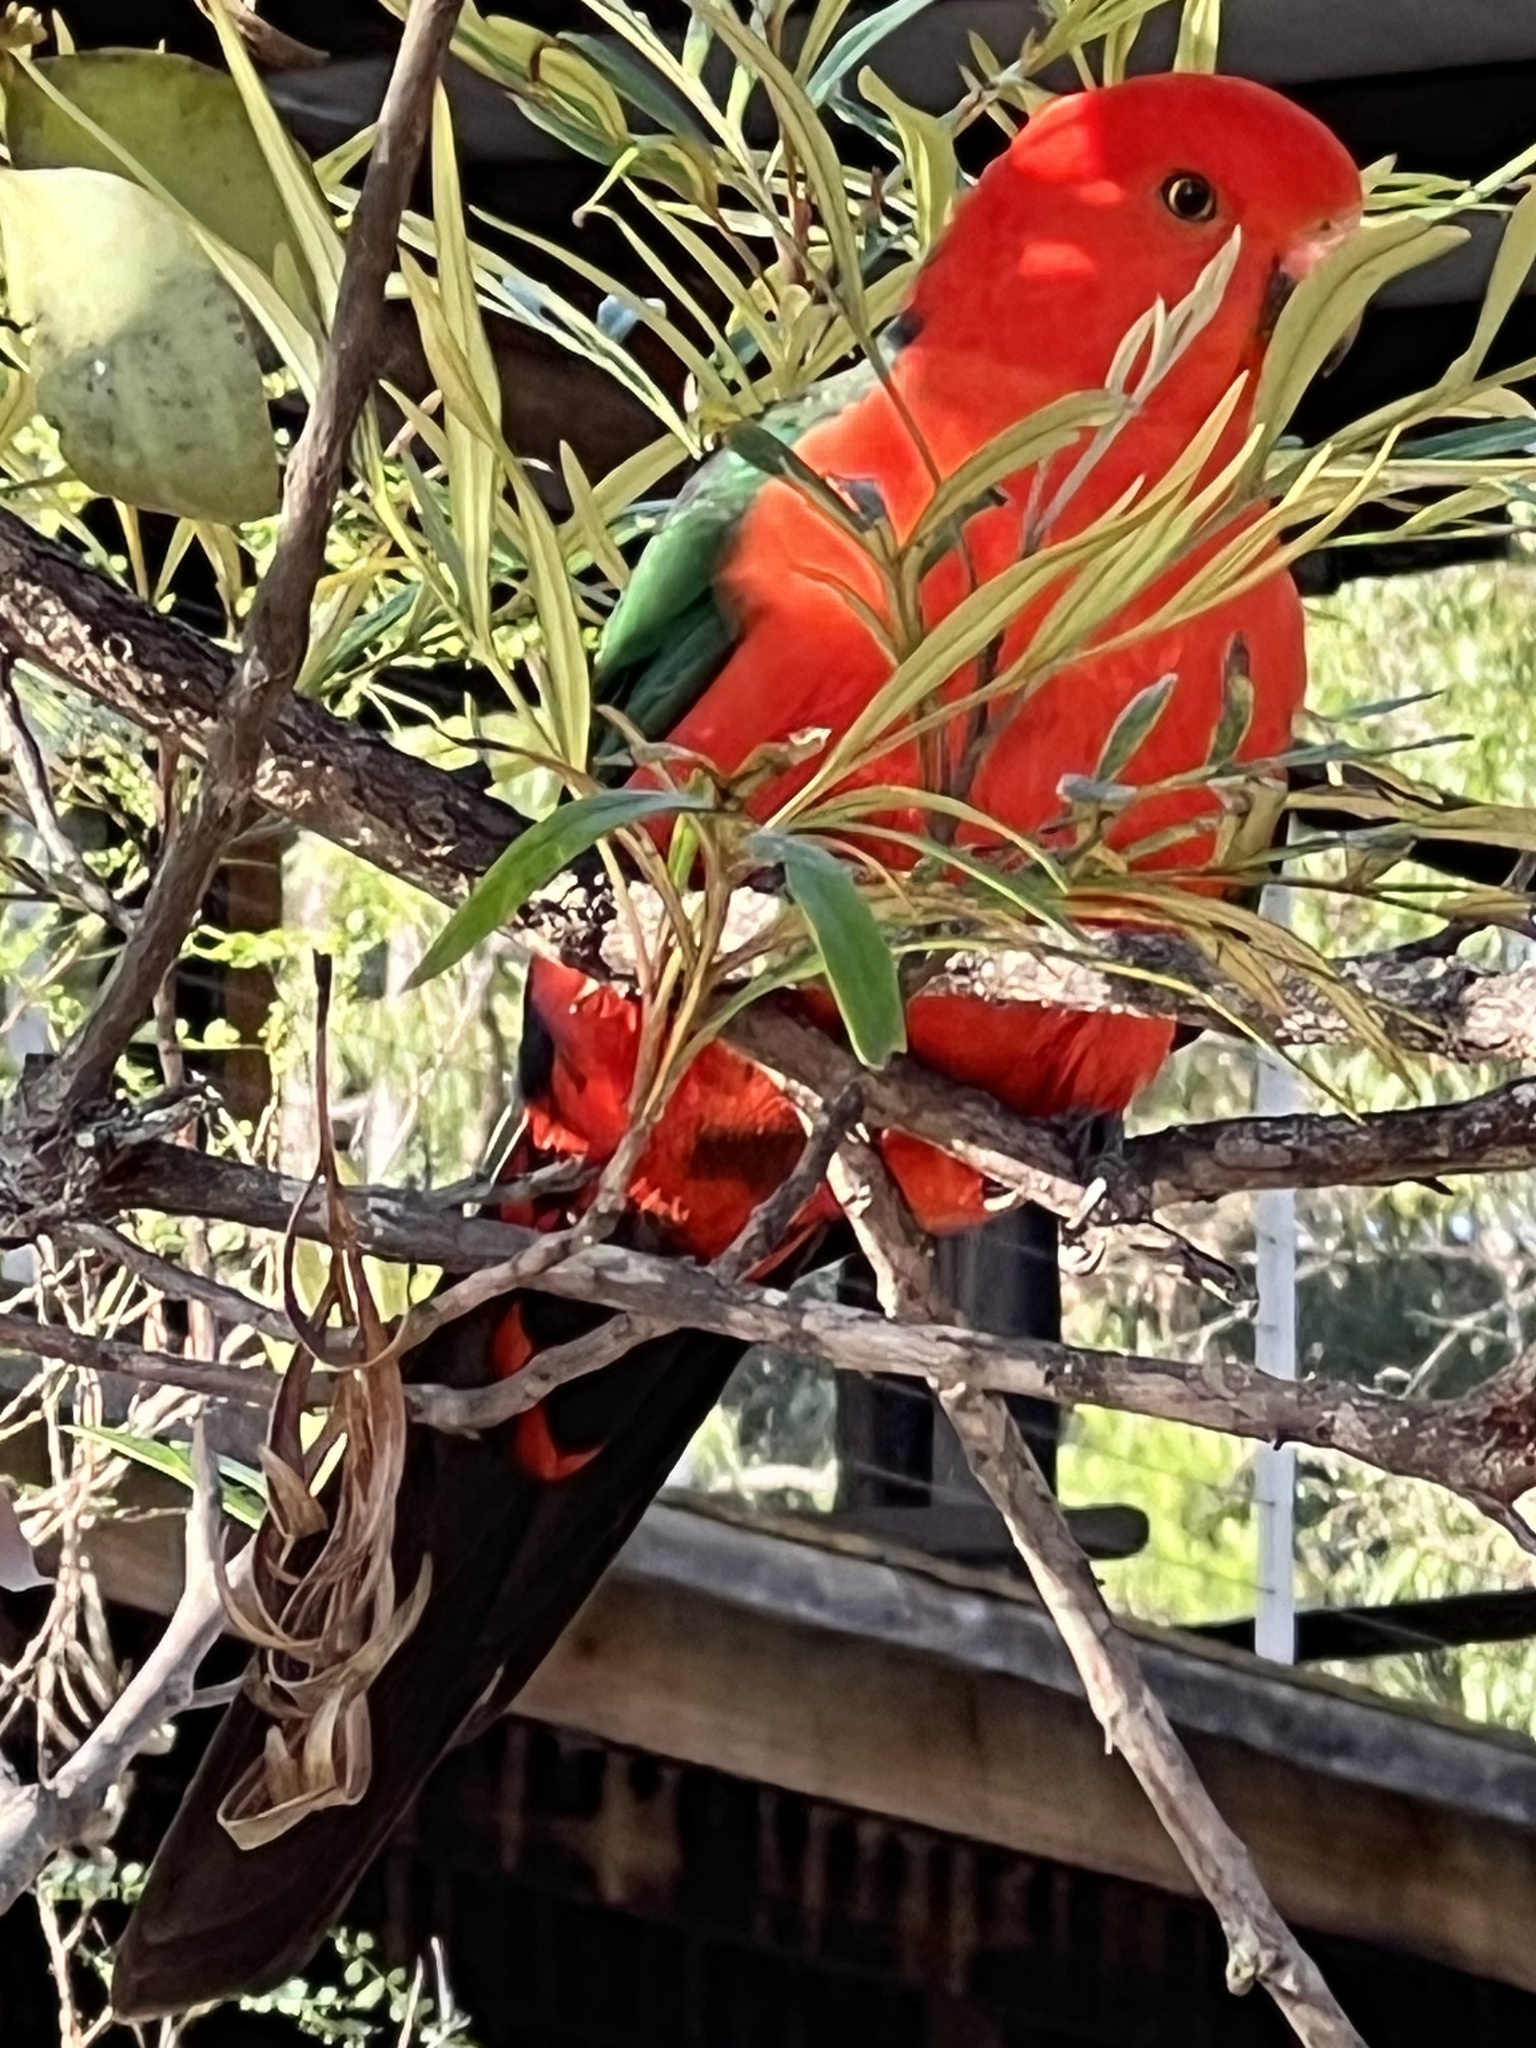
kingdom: Animalia
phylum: Chordata
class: Aves
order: Psittaciformes
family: Psittacidae
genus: Alisterus
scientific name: Alisterus scapularis
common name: Australian king parrot
